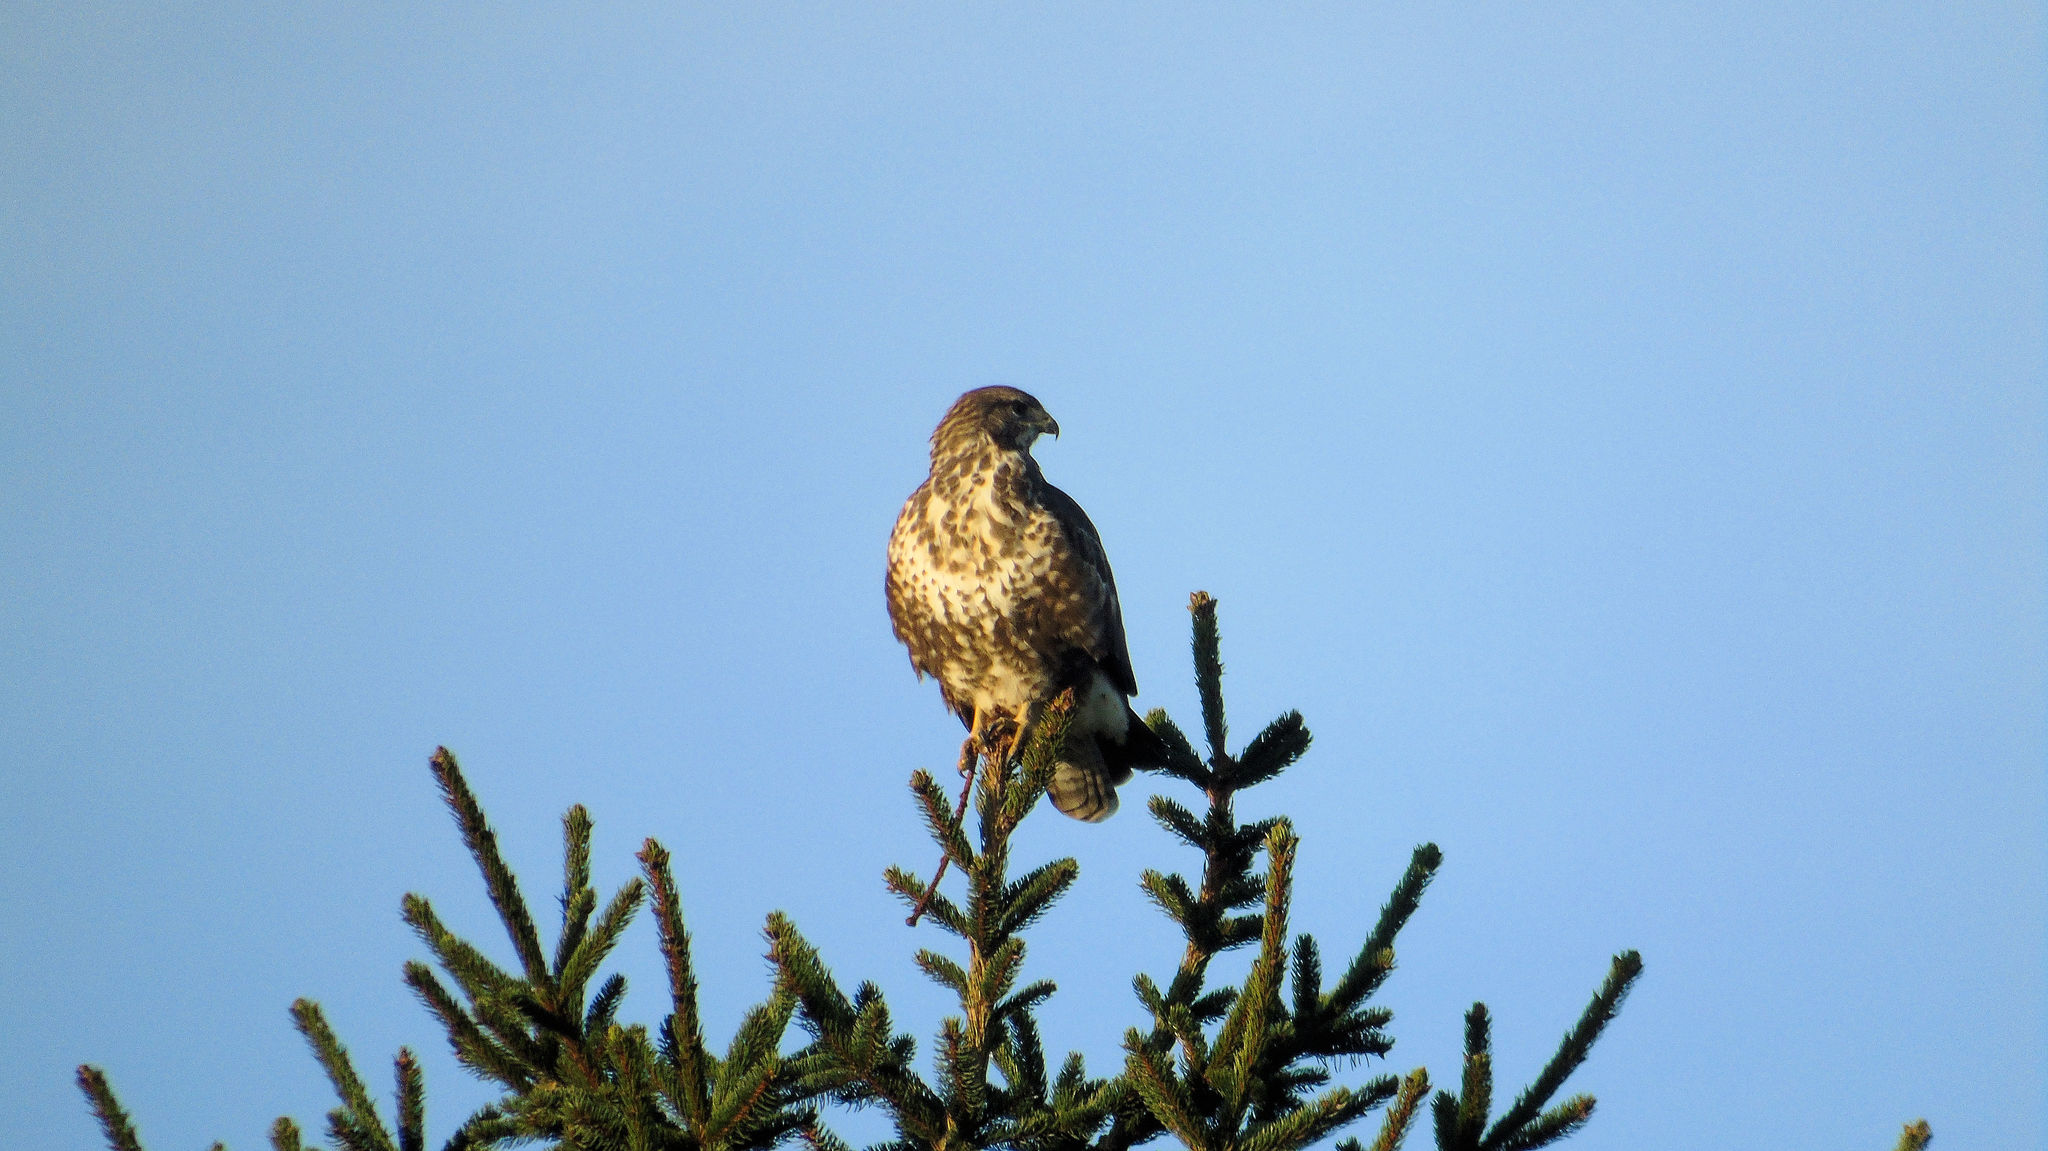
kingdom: Animalia
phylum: Chordata
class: Aves
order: Accipitriformes
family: Accipitridae
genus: Buteo
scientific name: Buteo buteo
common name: Common buzzard
